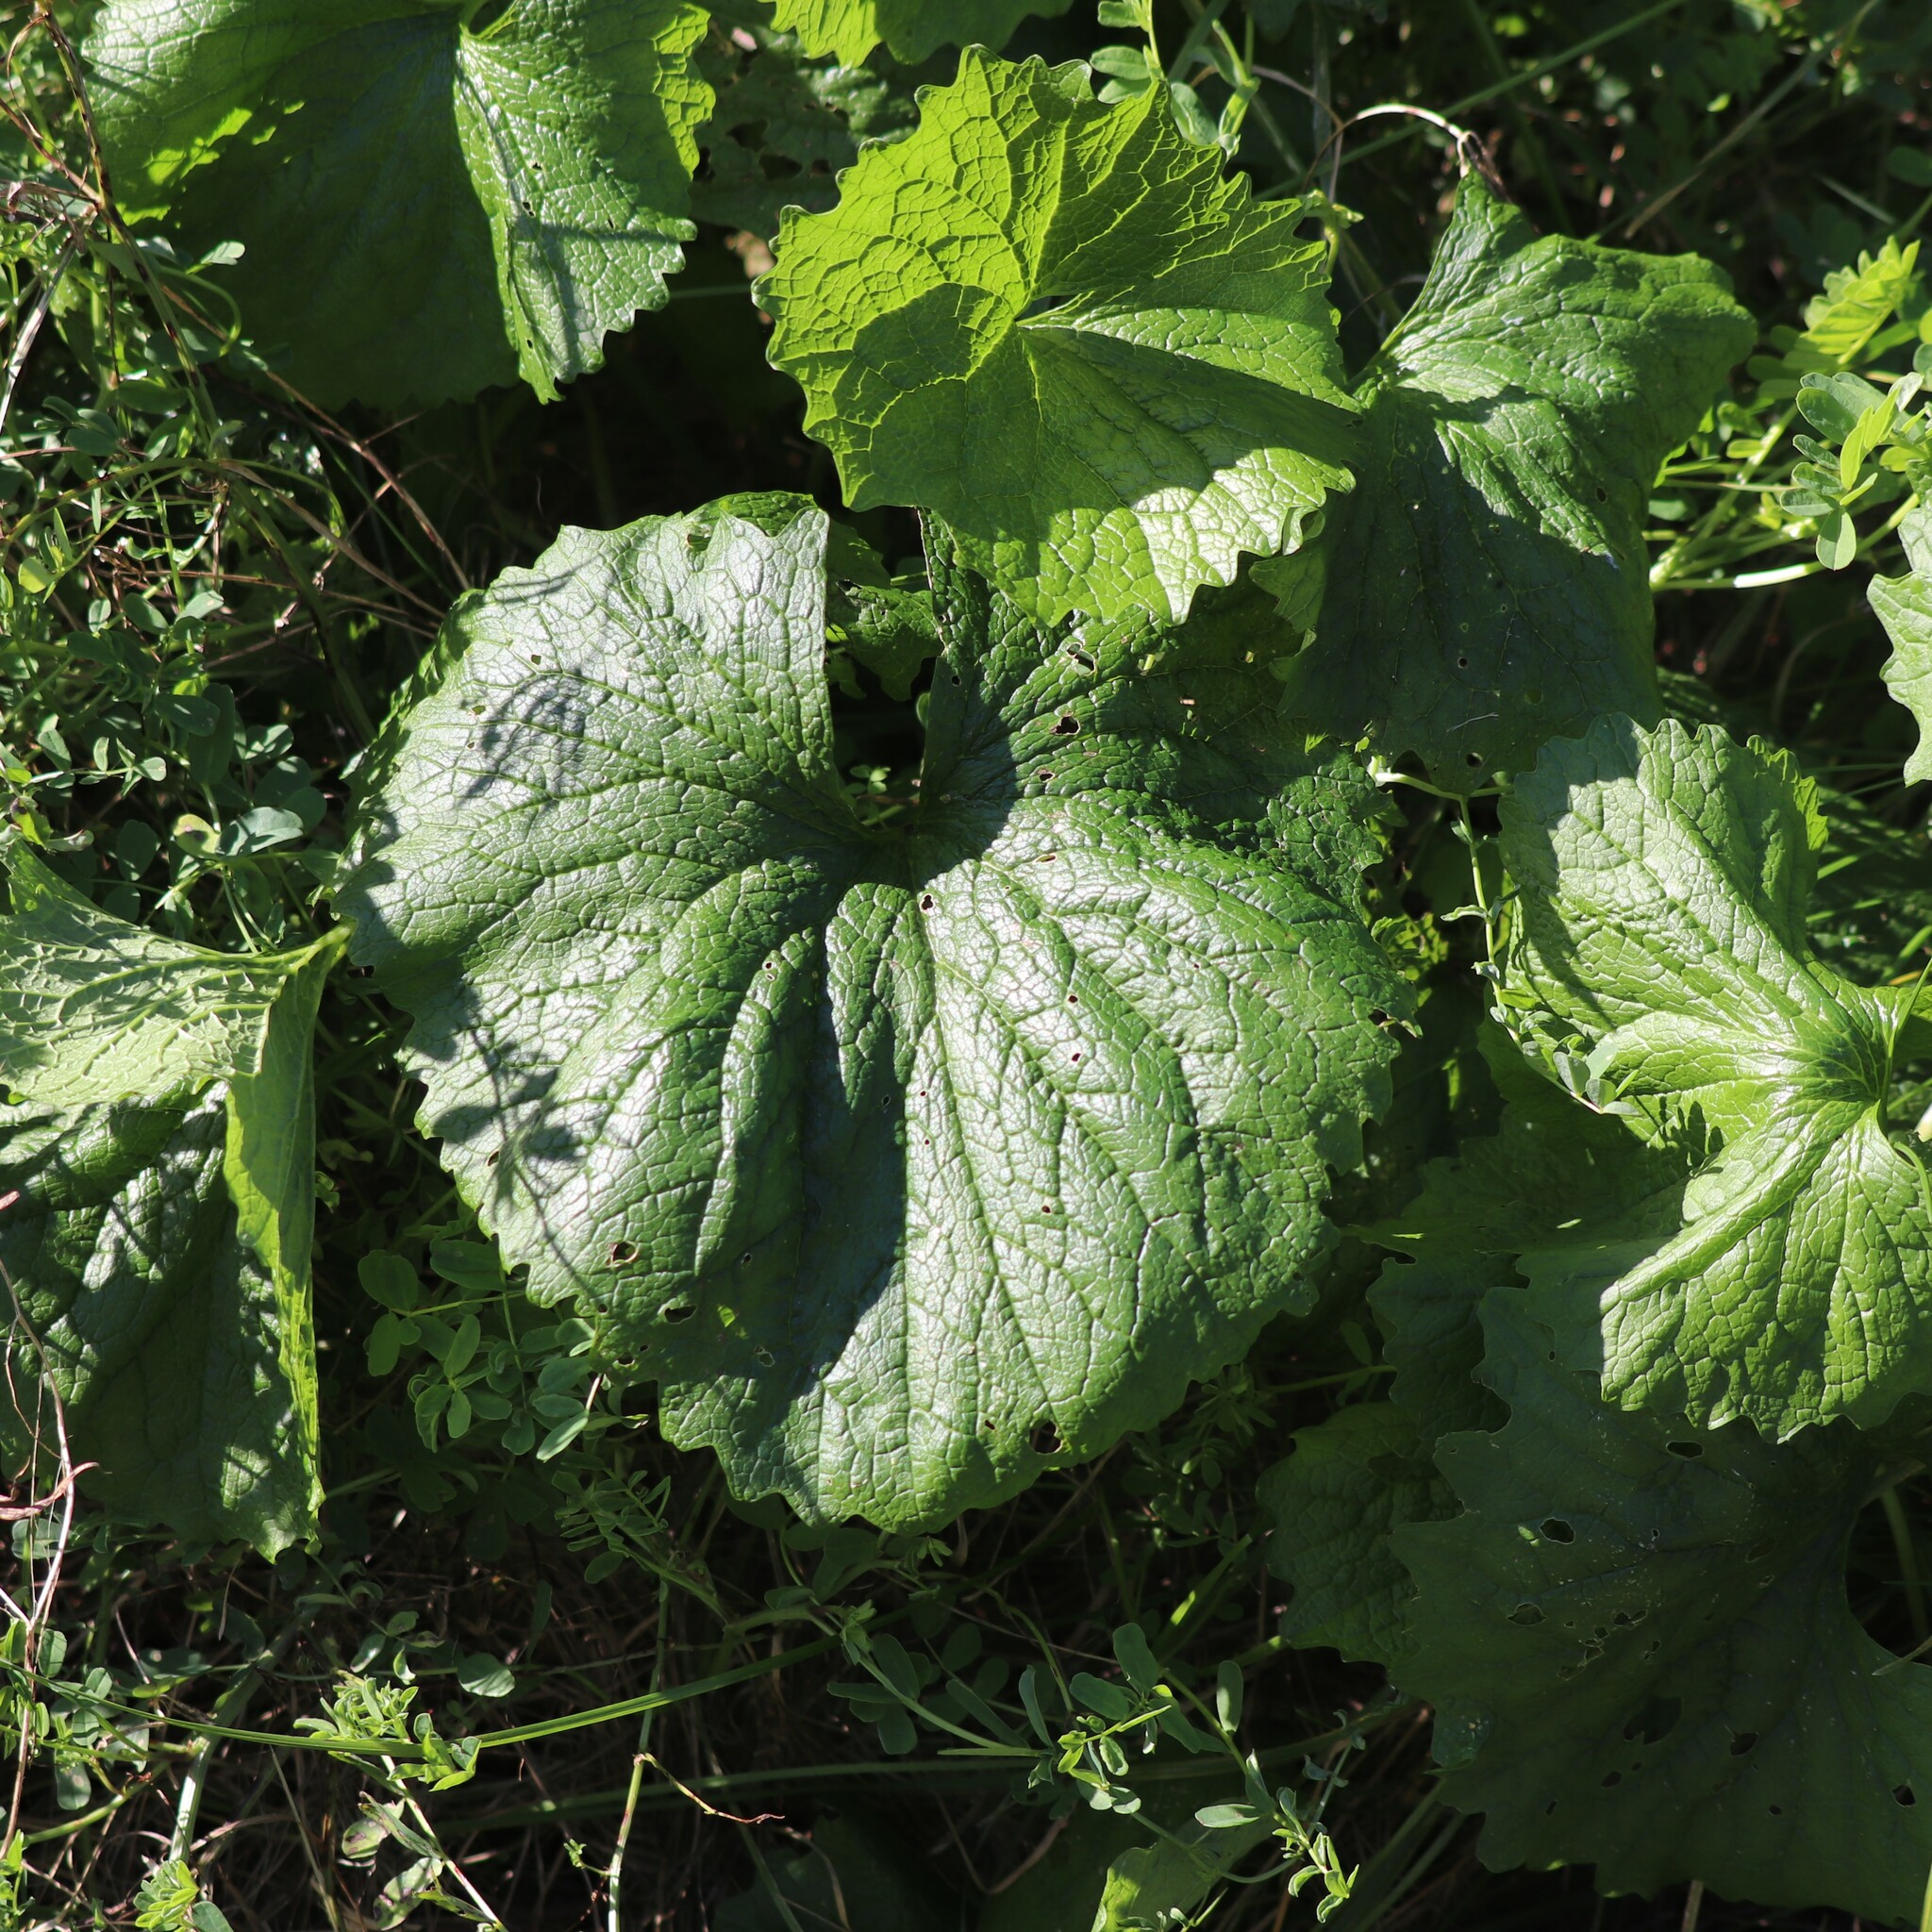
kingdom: Plantae
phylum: Tracheophyta
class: Magnoliopsida
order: Brassicales
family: Brassicaceae
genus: Alliaria
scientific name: Alliaria petiolata
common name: Garlic mustard
